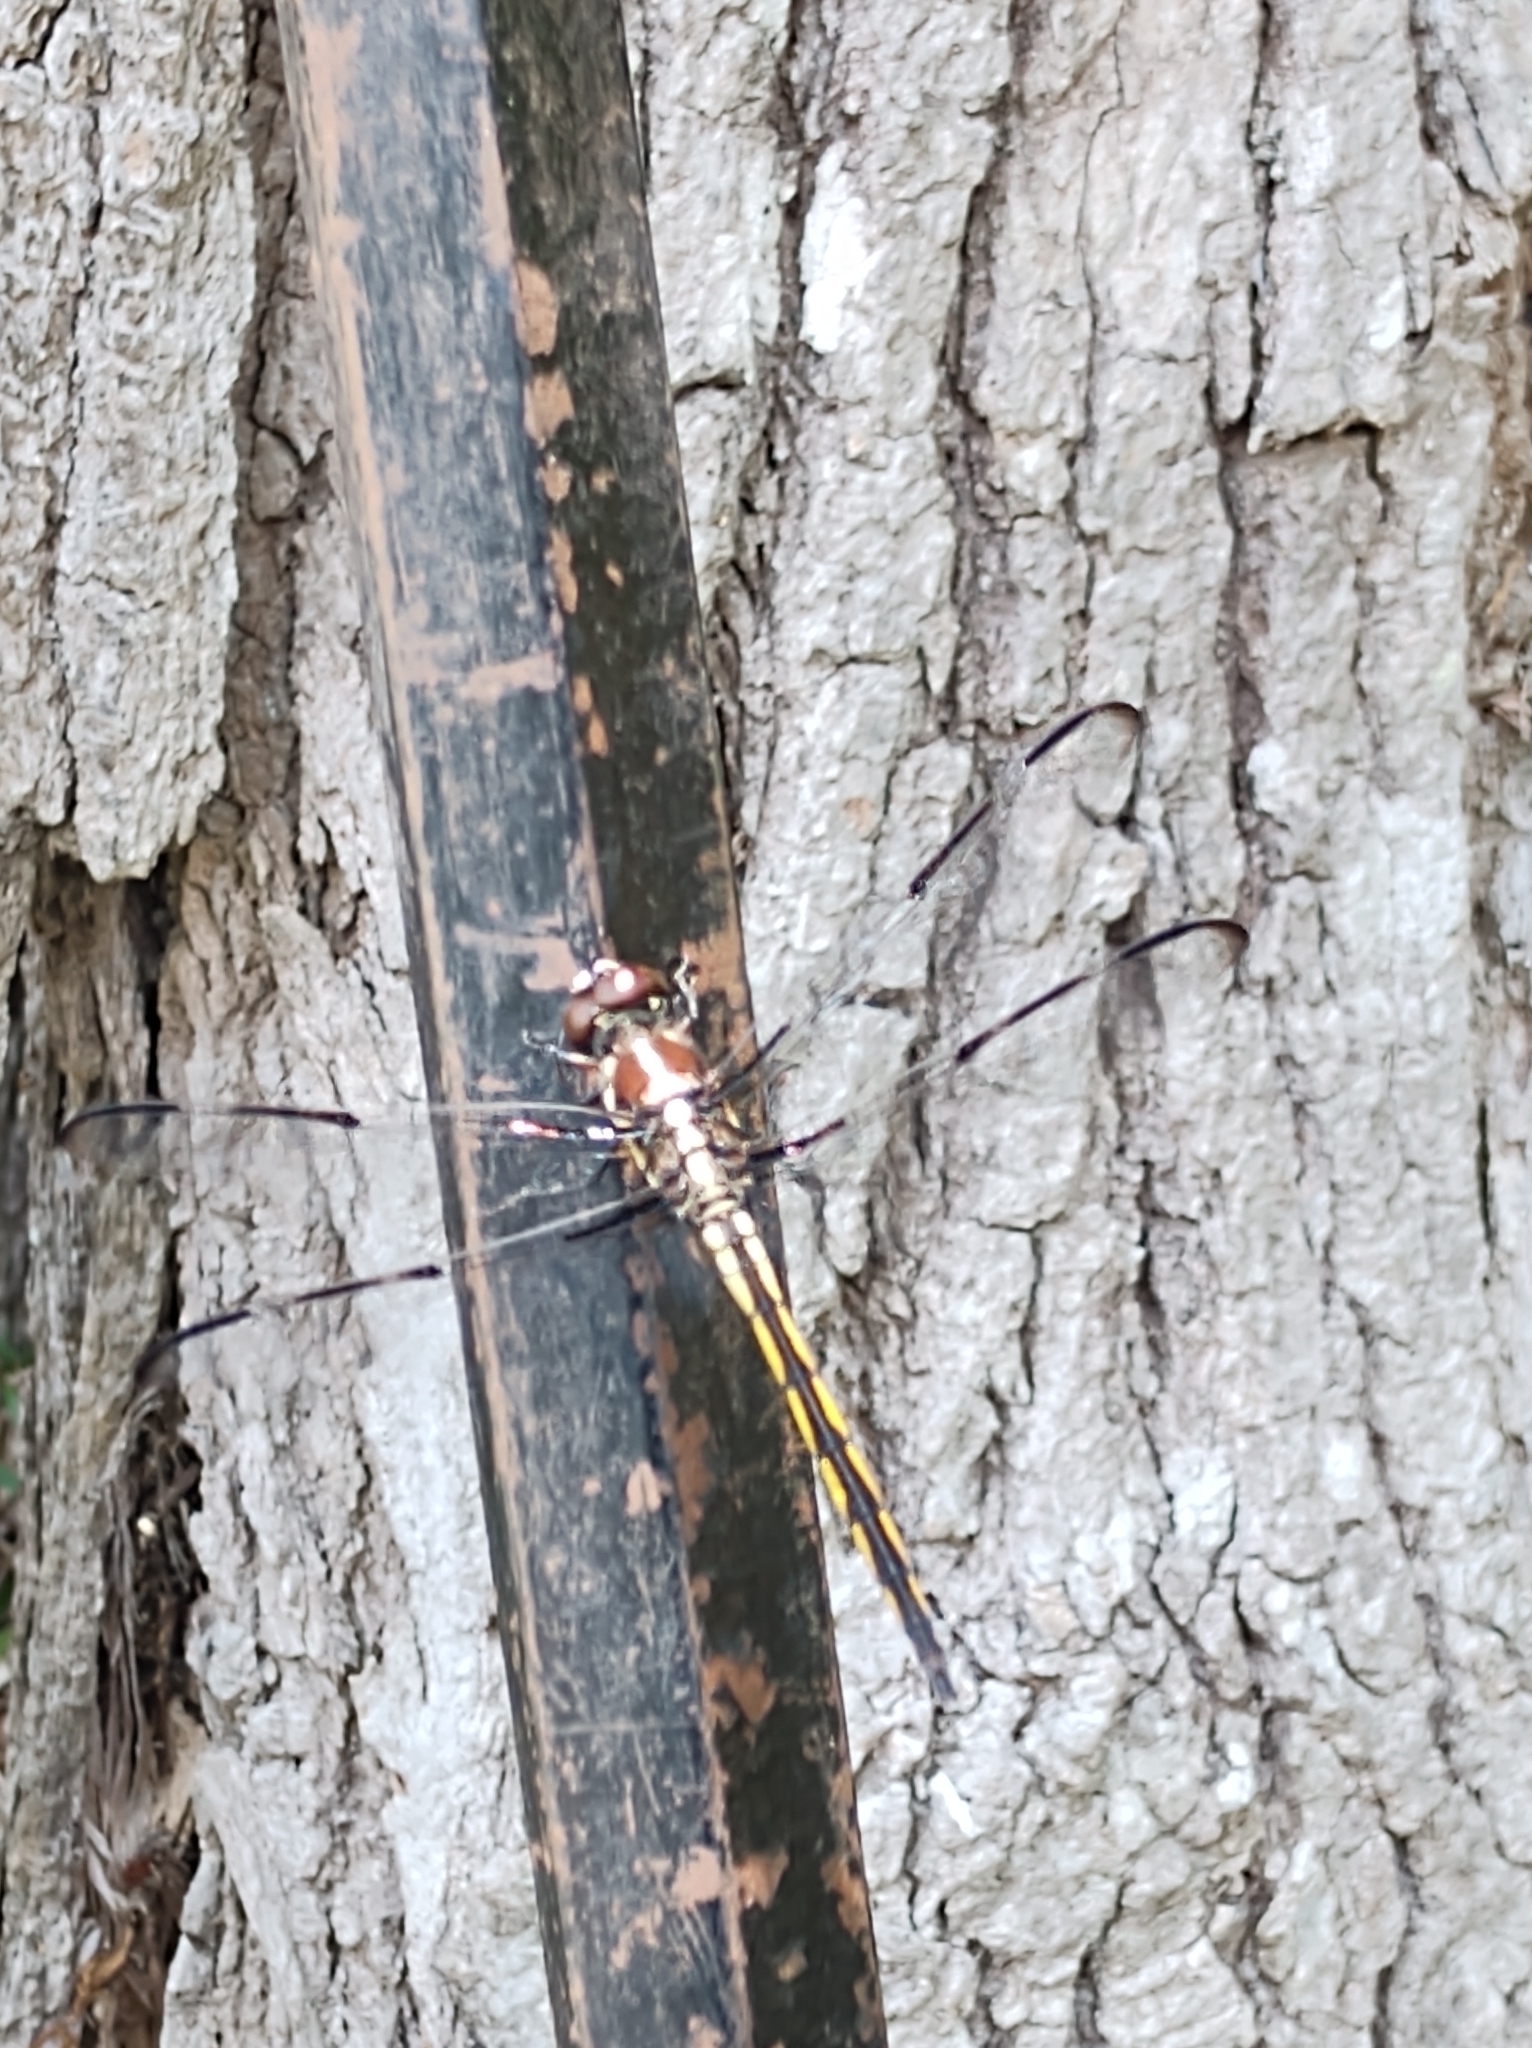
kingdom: Animalia
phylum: Arthropoda
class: Insecta
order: Odonata
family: Libellulidae
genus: Libellula
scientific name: Libellula axilena
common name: Bar-winged skimmer
